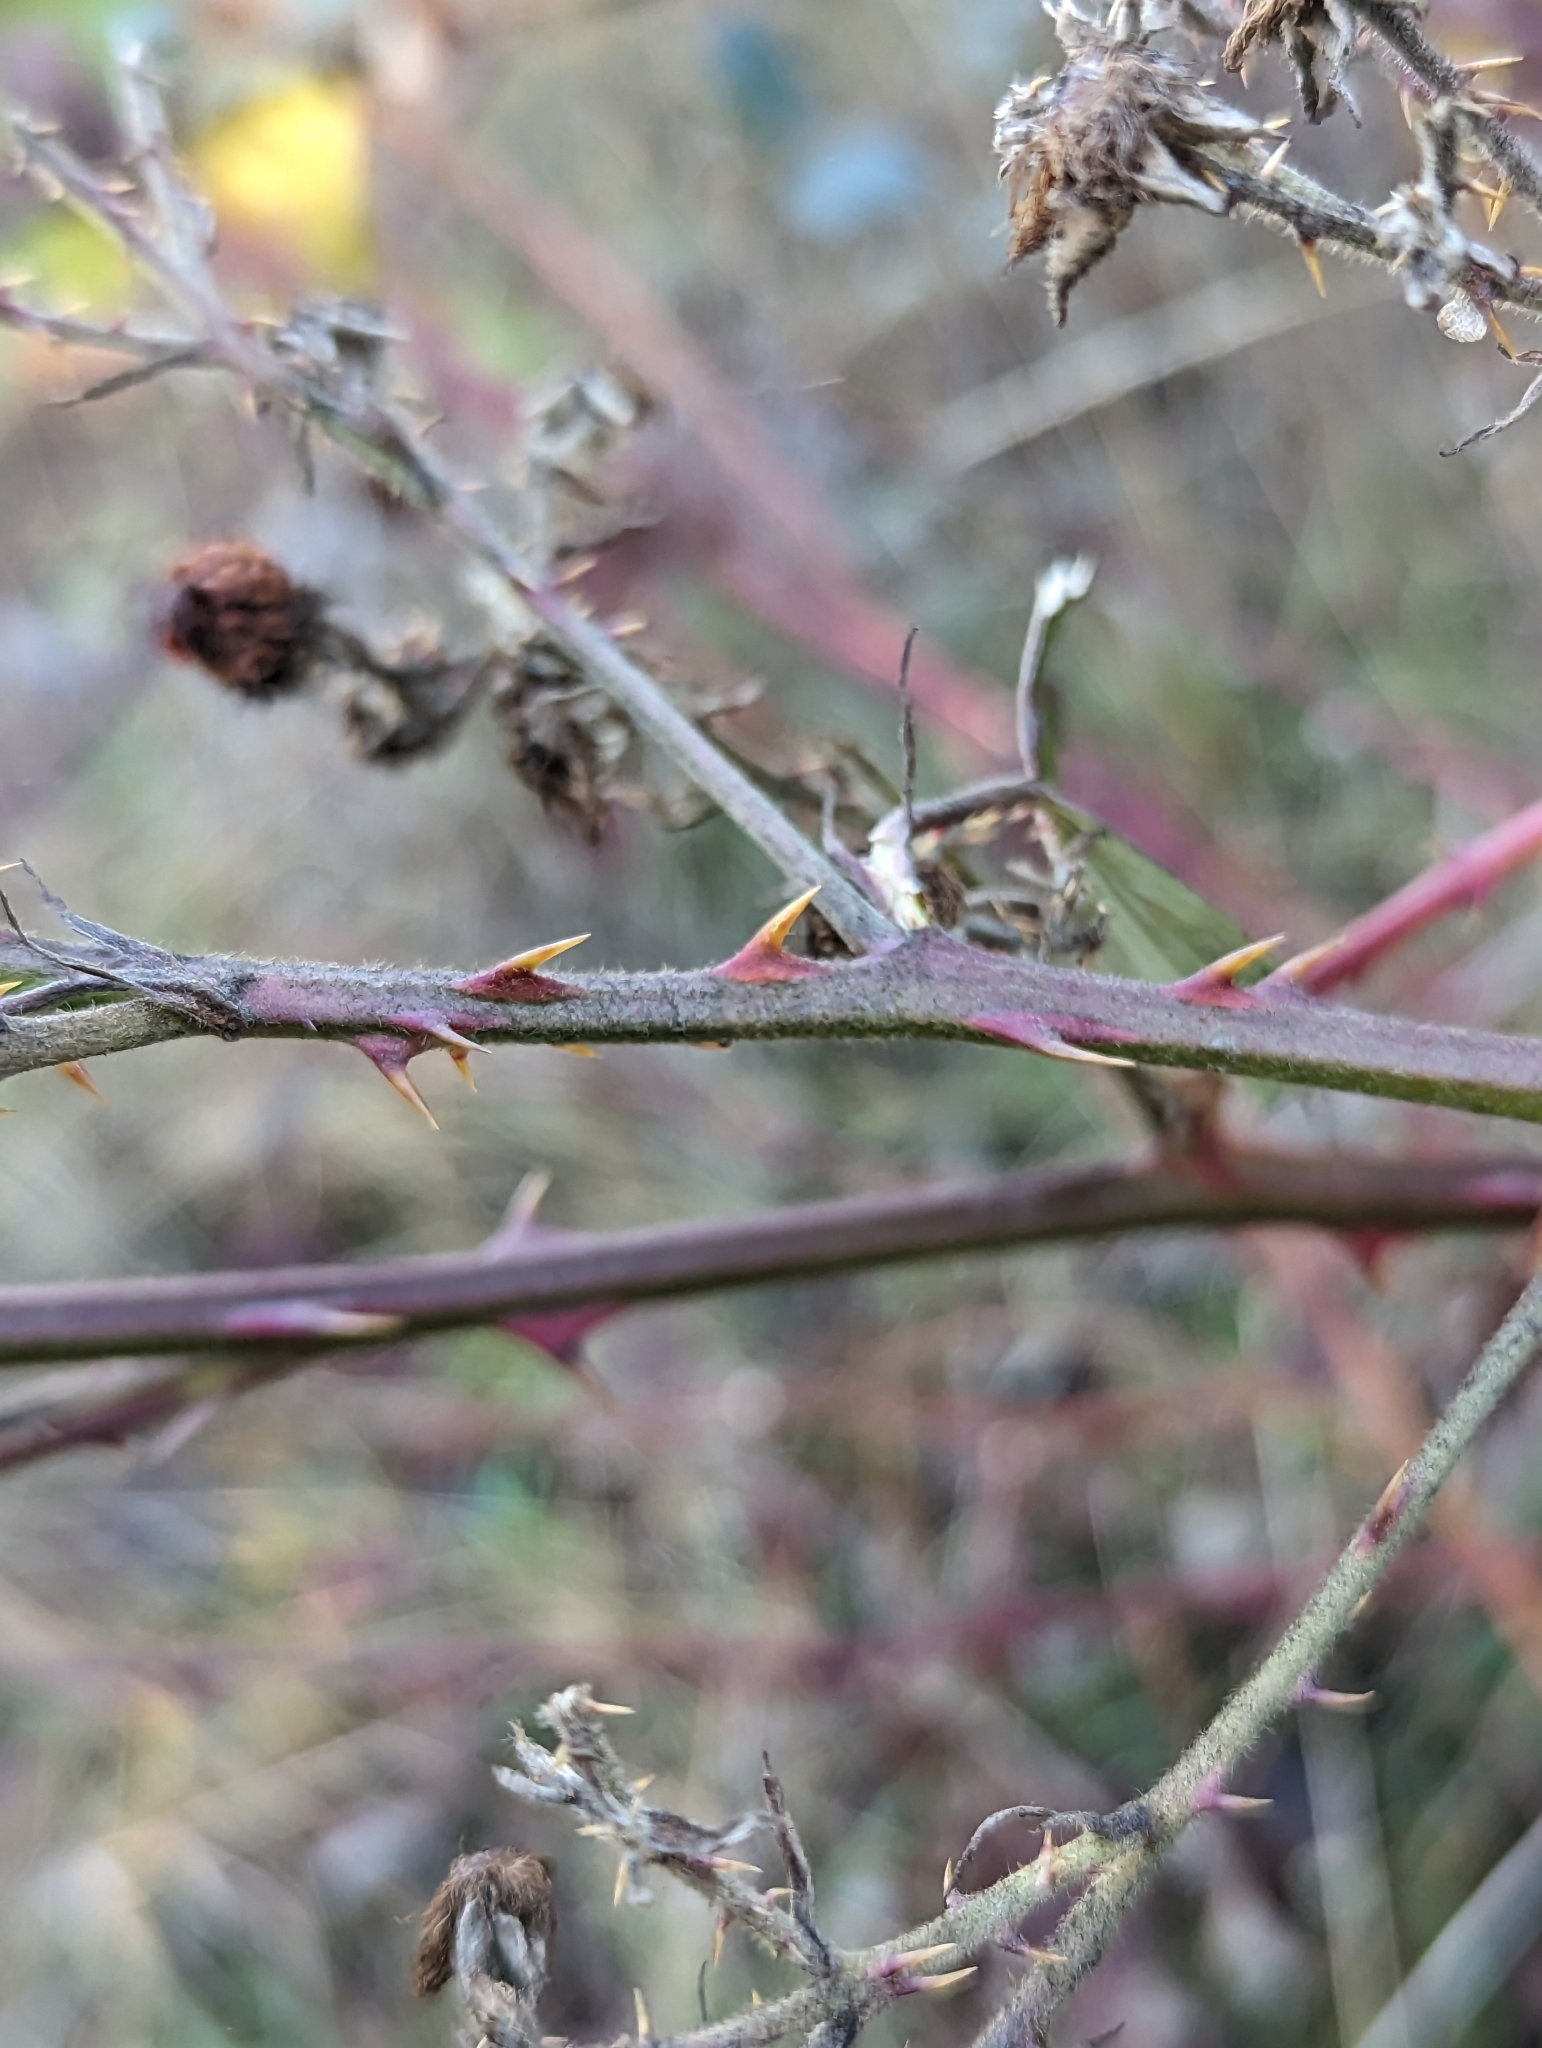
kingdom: Plantae
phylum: Tracheophyta
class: Magnoliopsida
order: Rosales
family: Rosaceae
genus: Rubus
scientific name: Rubus bifrons
